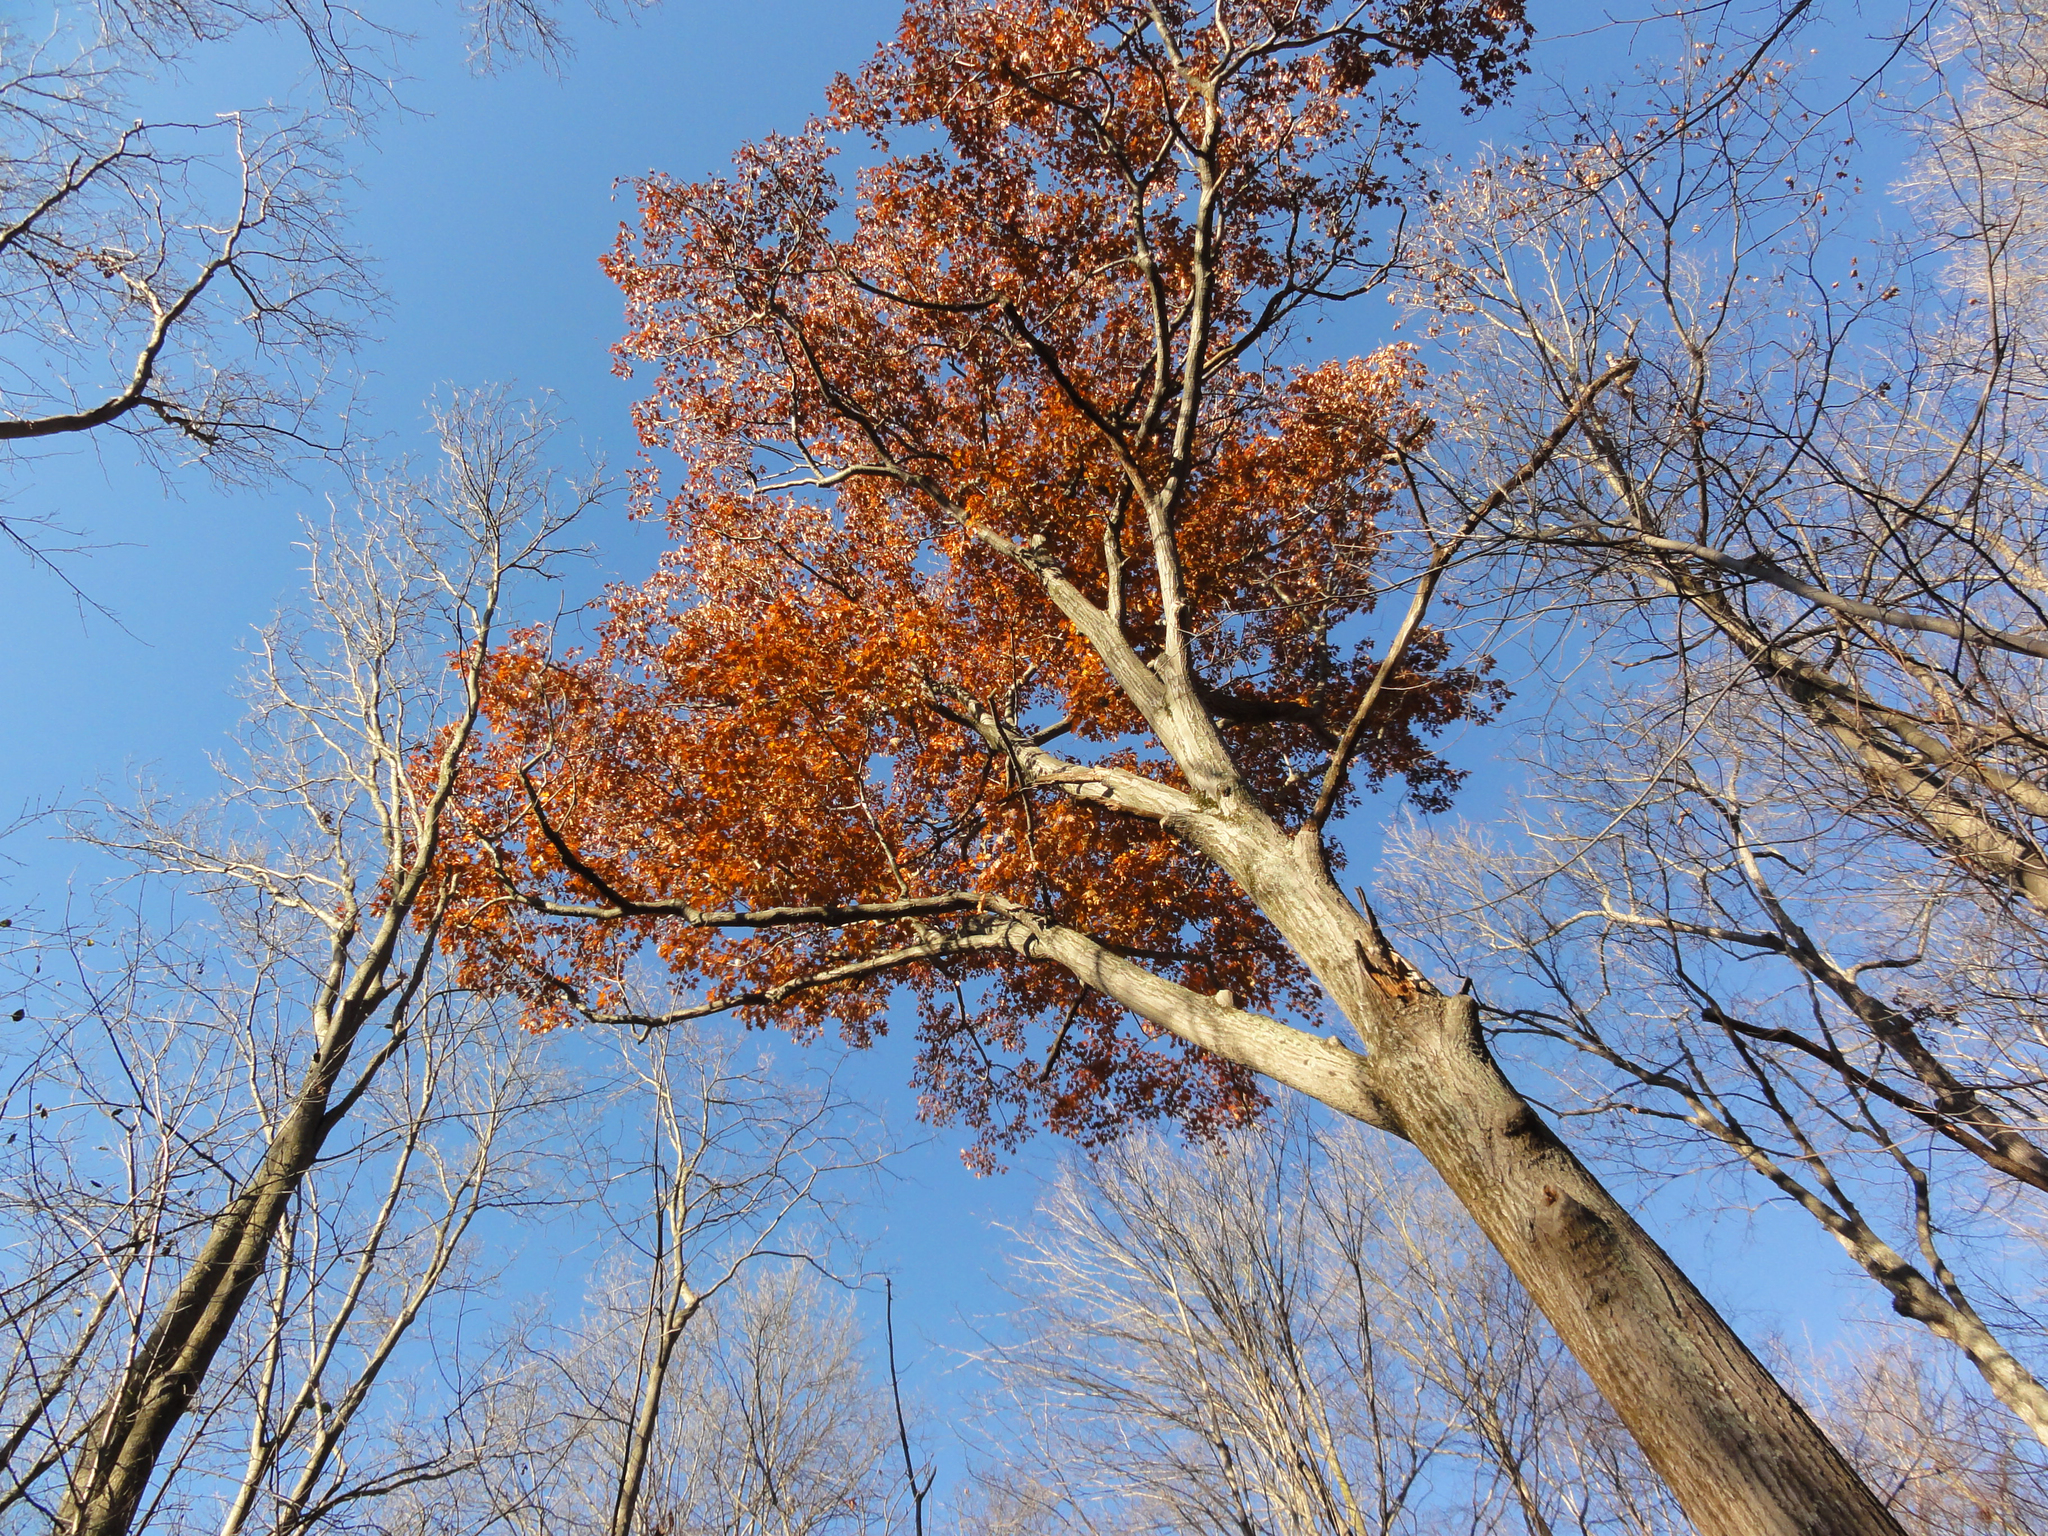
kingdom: Plantae
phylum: Tracheophyta
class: Magnoliopsida
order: Fagales
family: Fagaceae
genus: Quercus
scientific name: Quercus rubra
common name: Red oak
